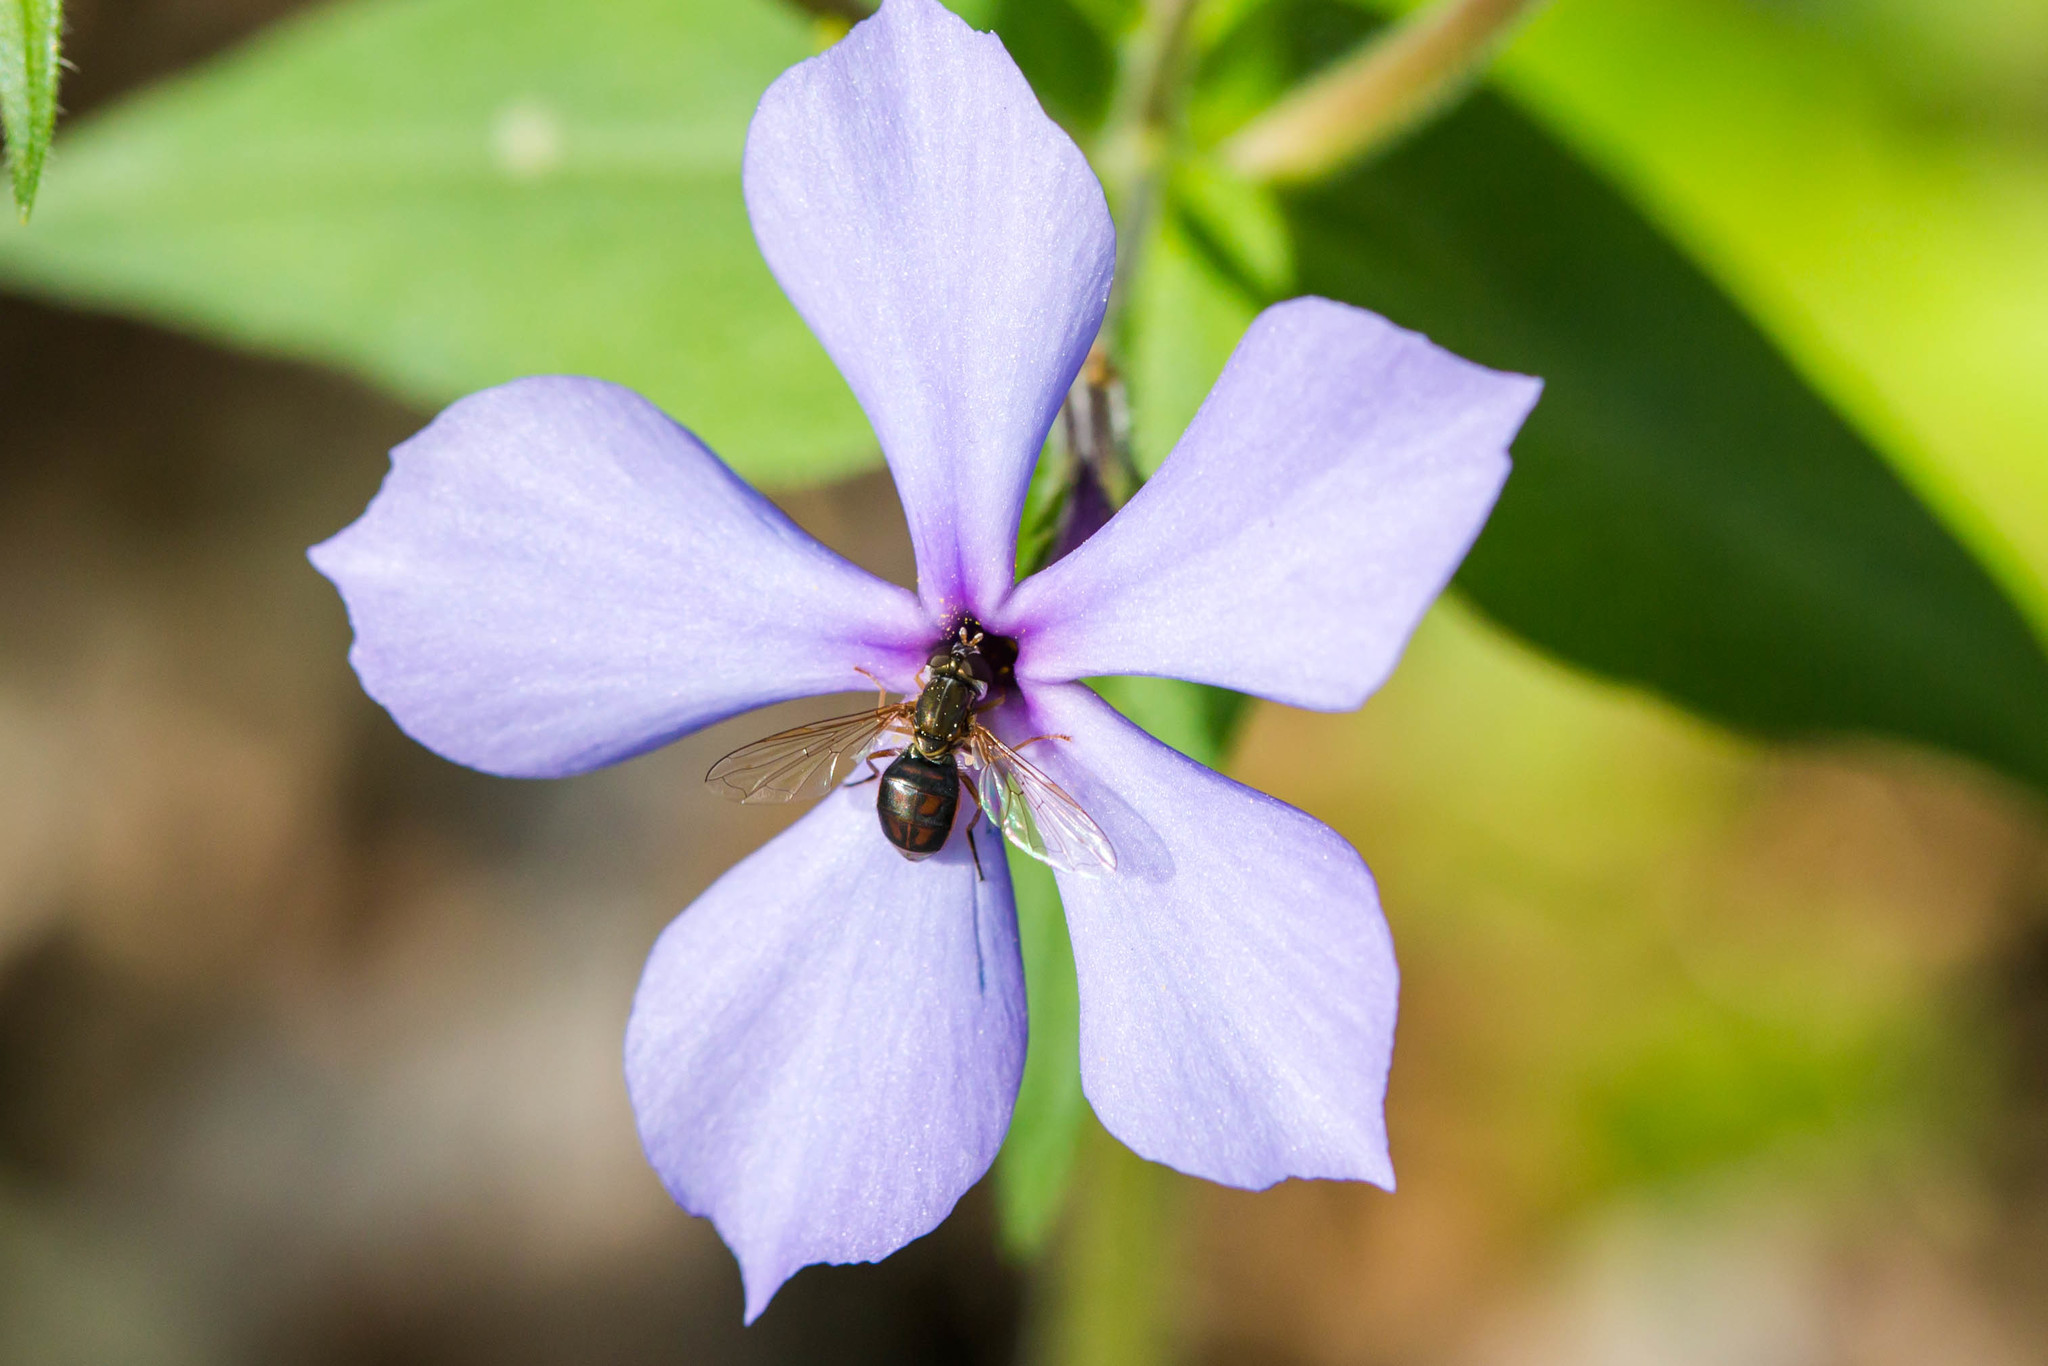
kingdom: Animalia
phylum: Arthropoda
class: Insecta
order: Diptera
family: Syrphidae
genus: Toxomerus
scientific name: Toxomerus marginatus
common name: Syrphid fly
